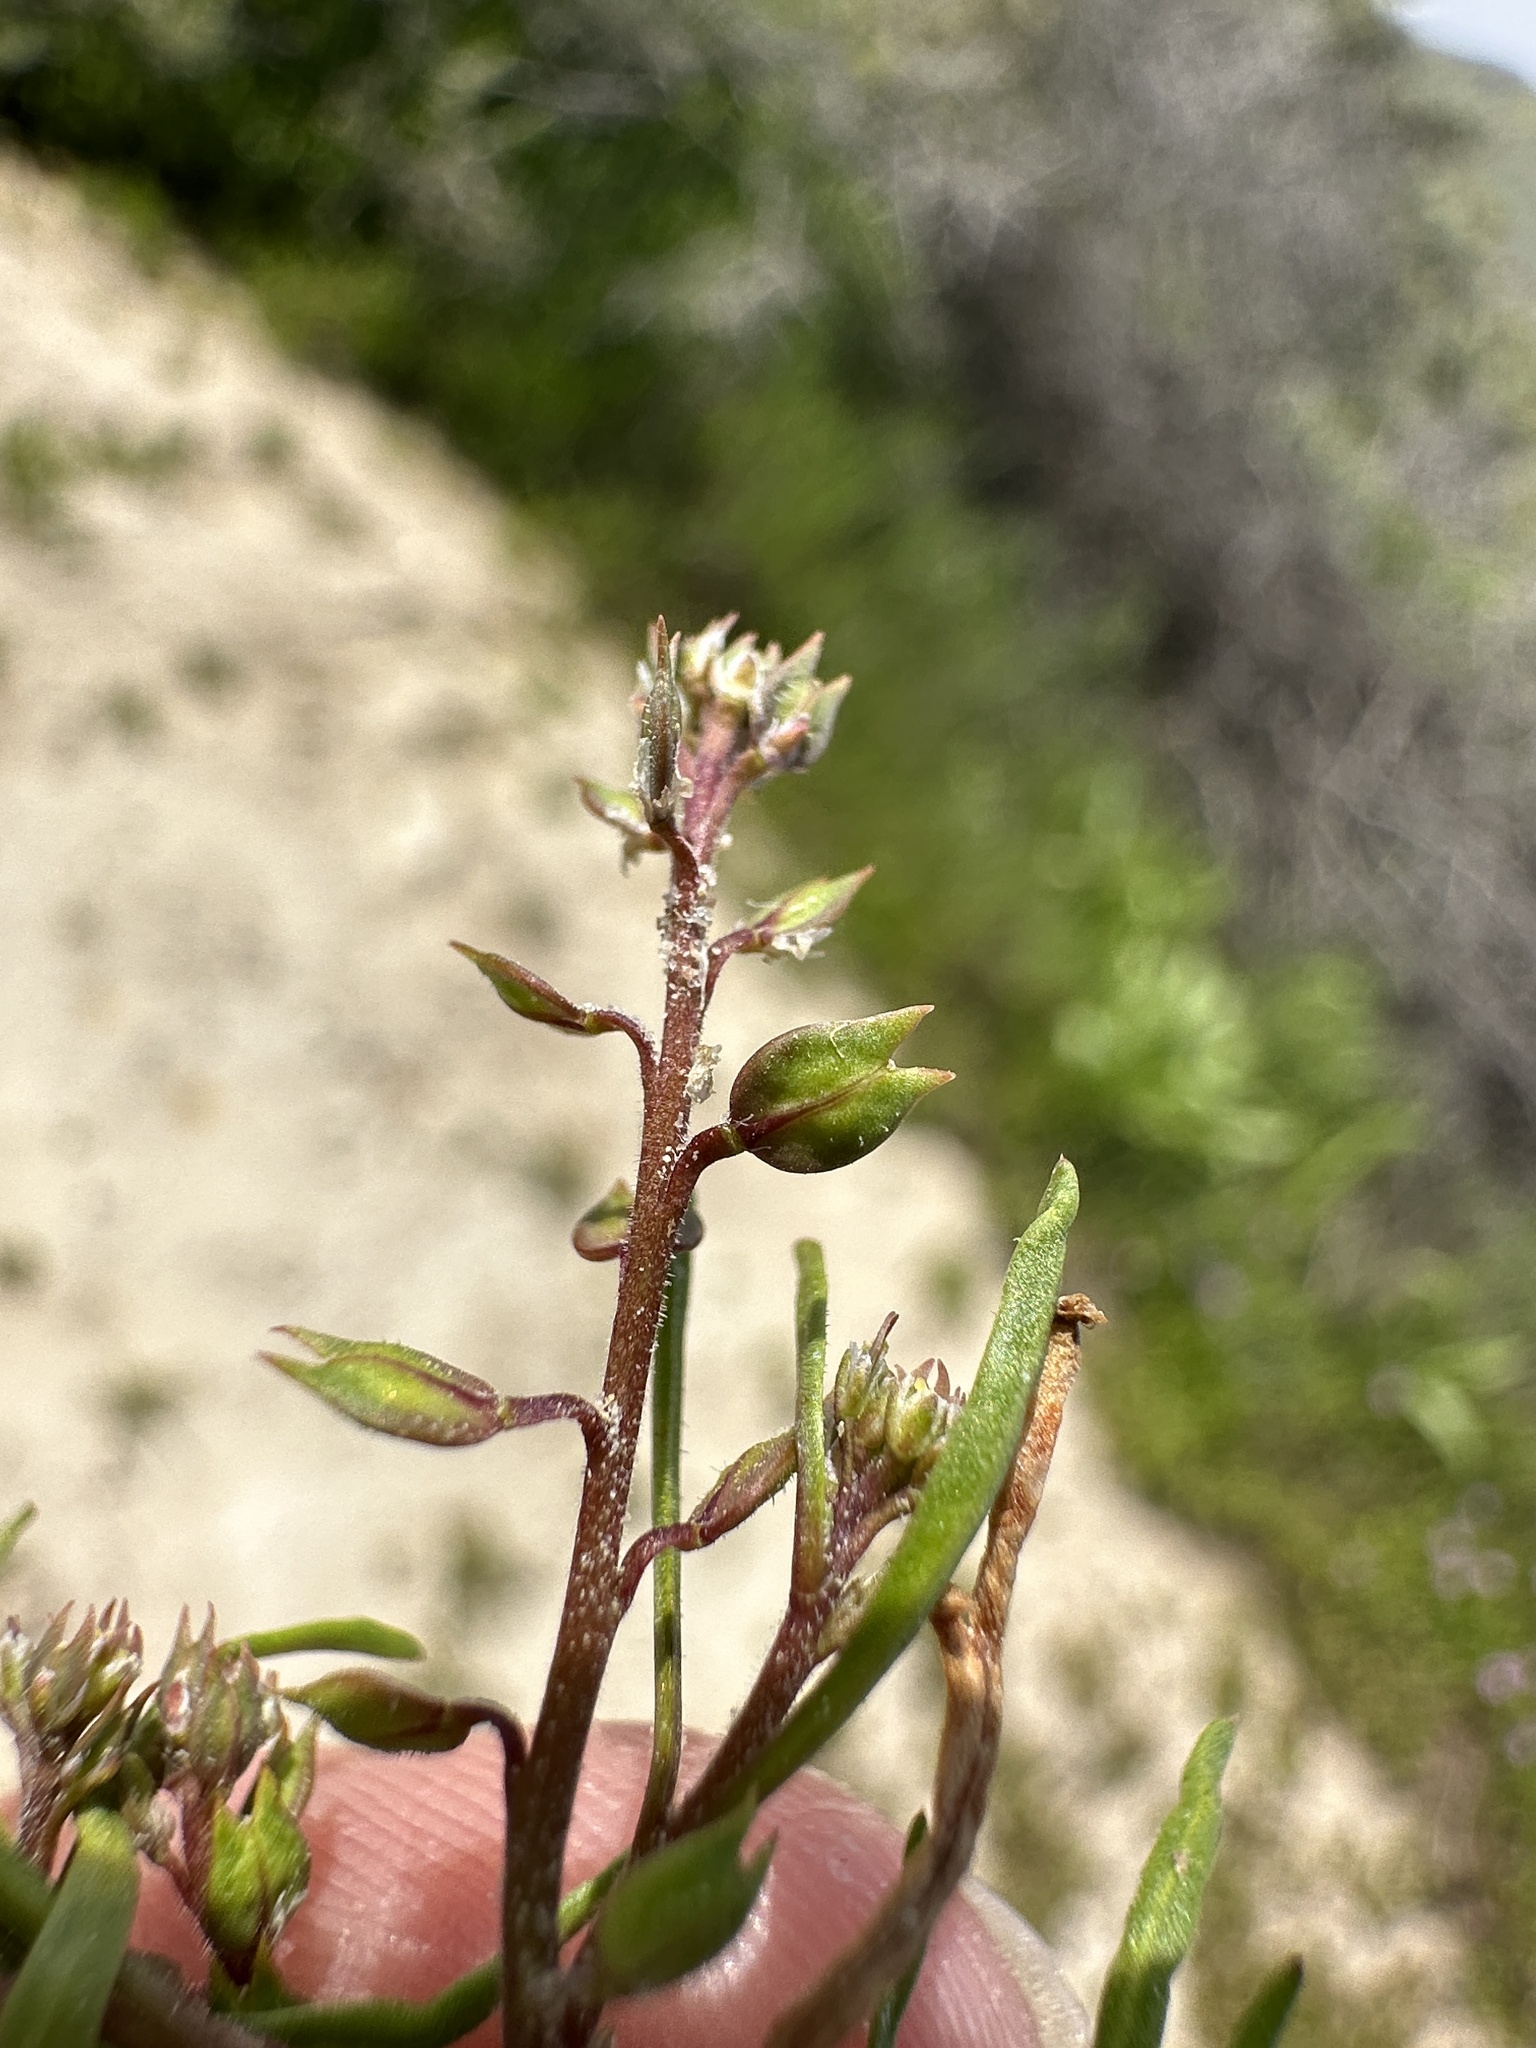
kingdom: Plantae
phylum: Tracheophyta
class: Magnoliopsida
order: Brassicales
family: Brassicaceae
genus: Lepidium
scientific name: Lepidium acutidens
